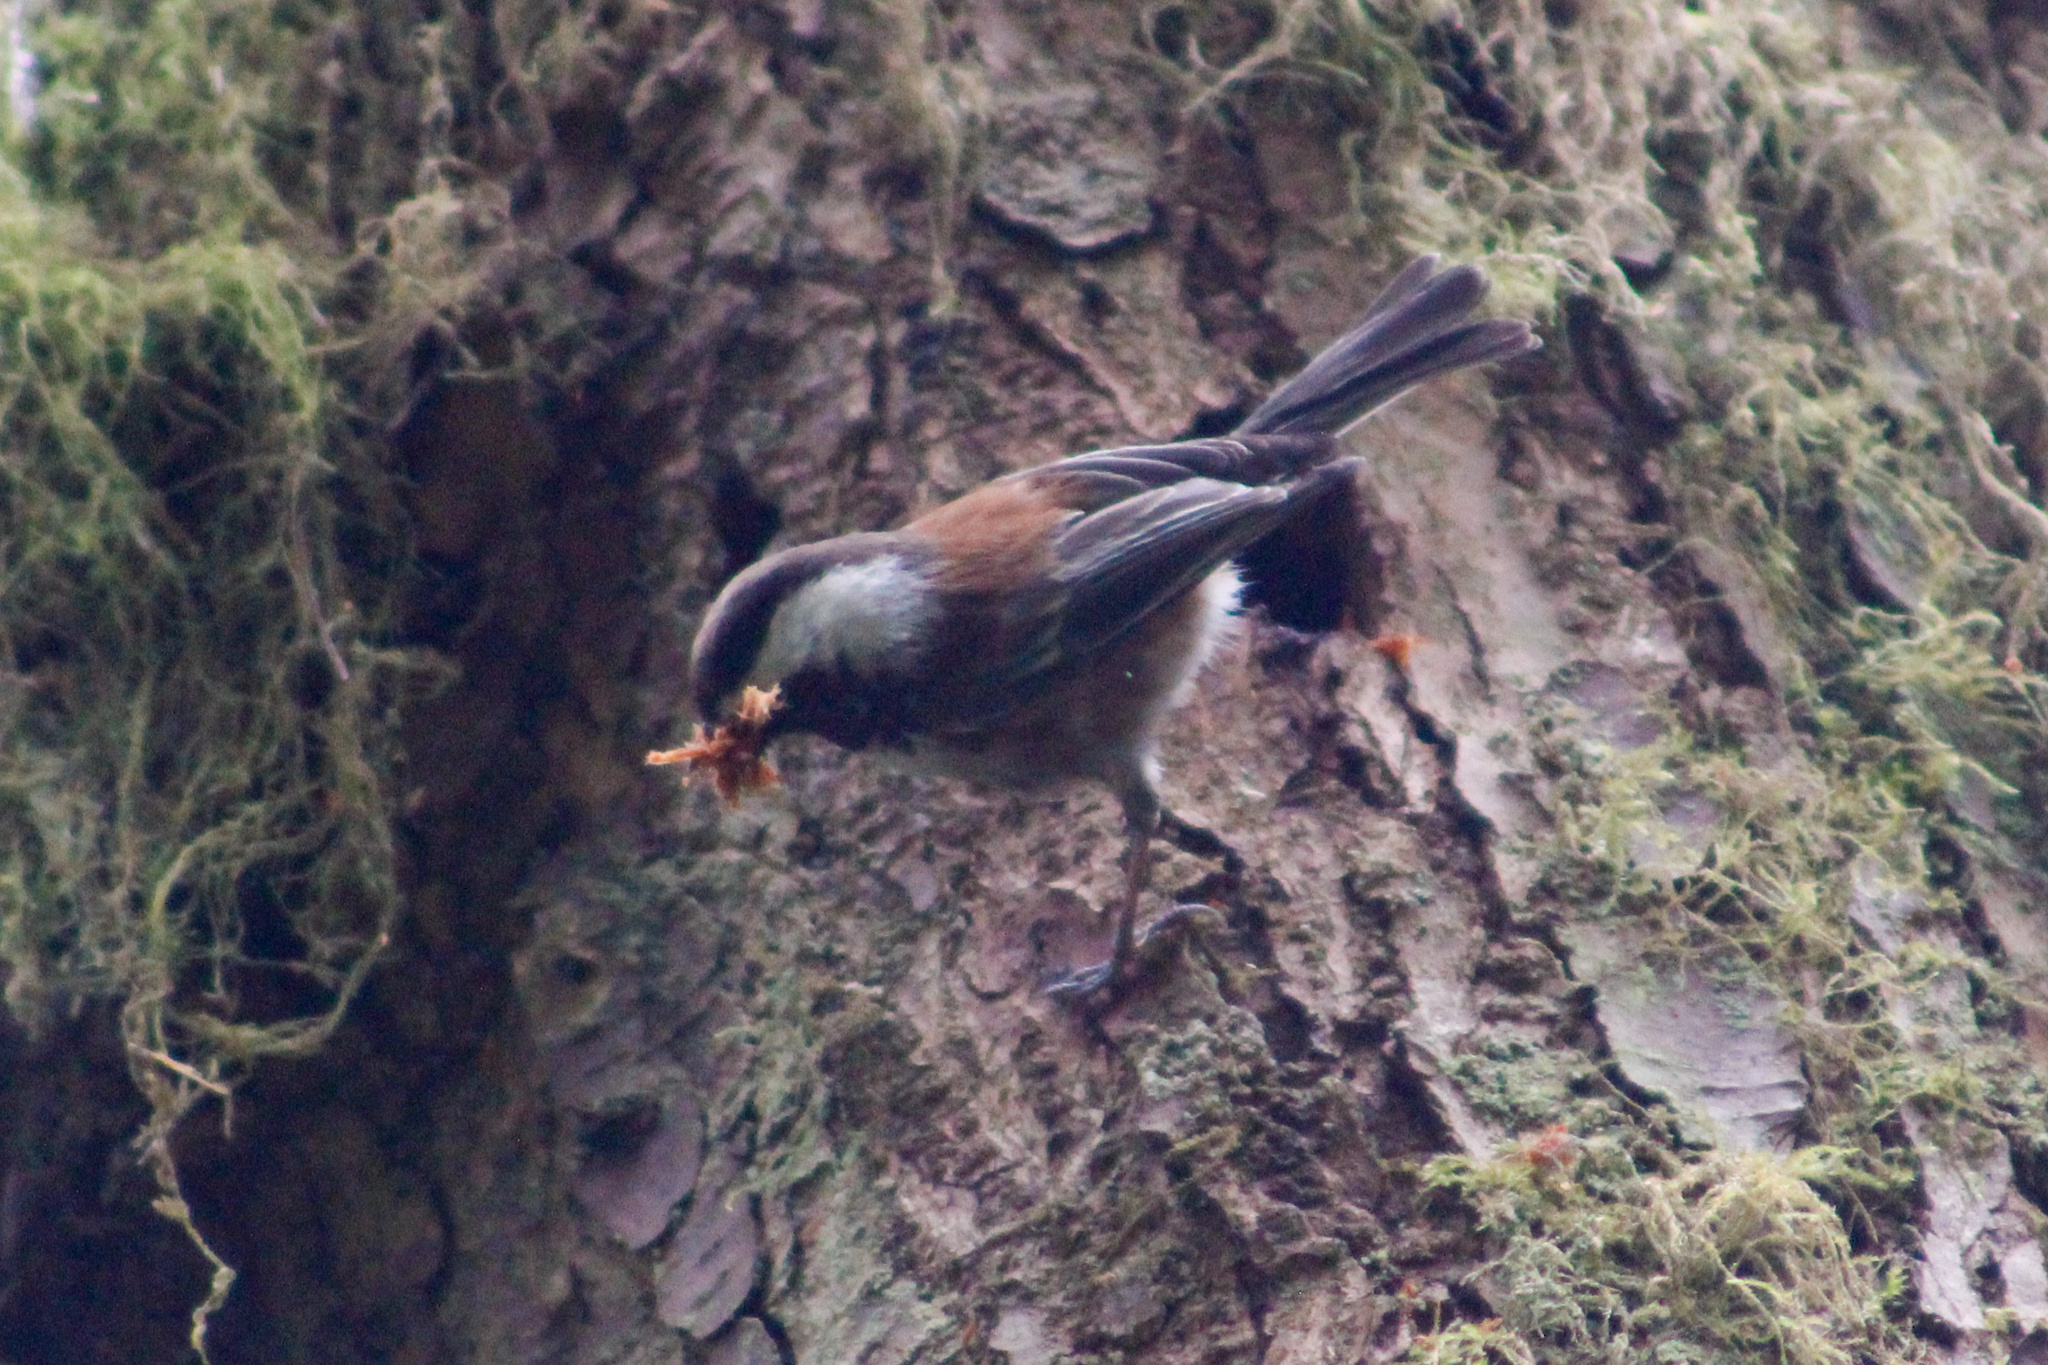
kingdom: Animalia
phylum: Chordata
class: Aves
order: Passeriformes
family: Paridae
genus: Poecile
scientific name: Poecile rufescens
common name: Chestnut-backed chickadee
